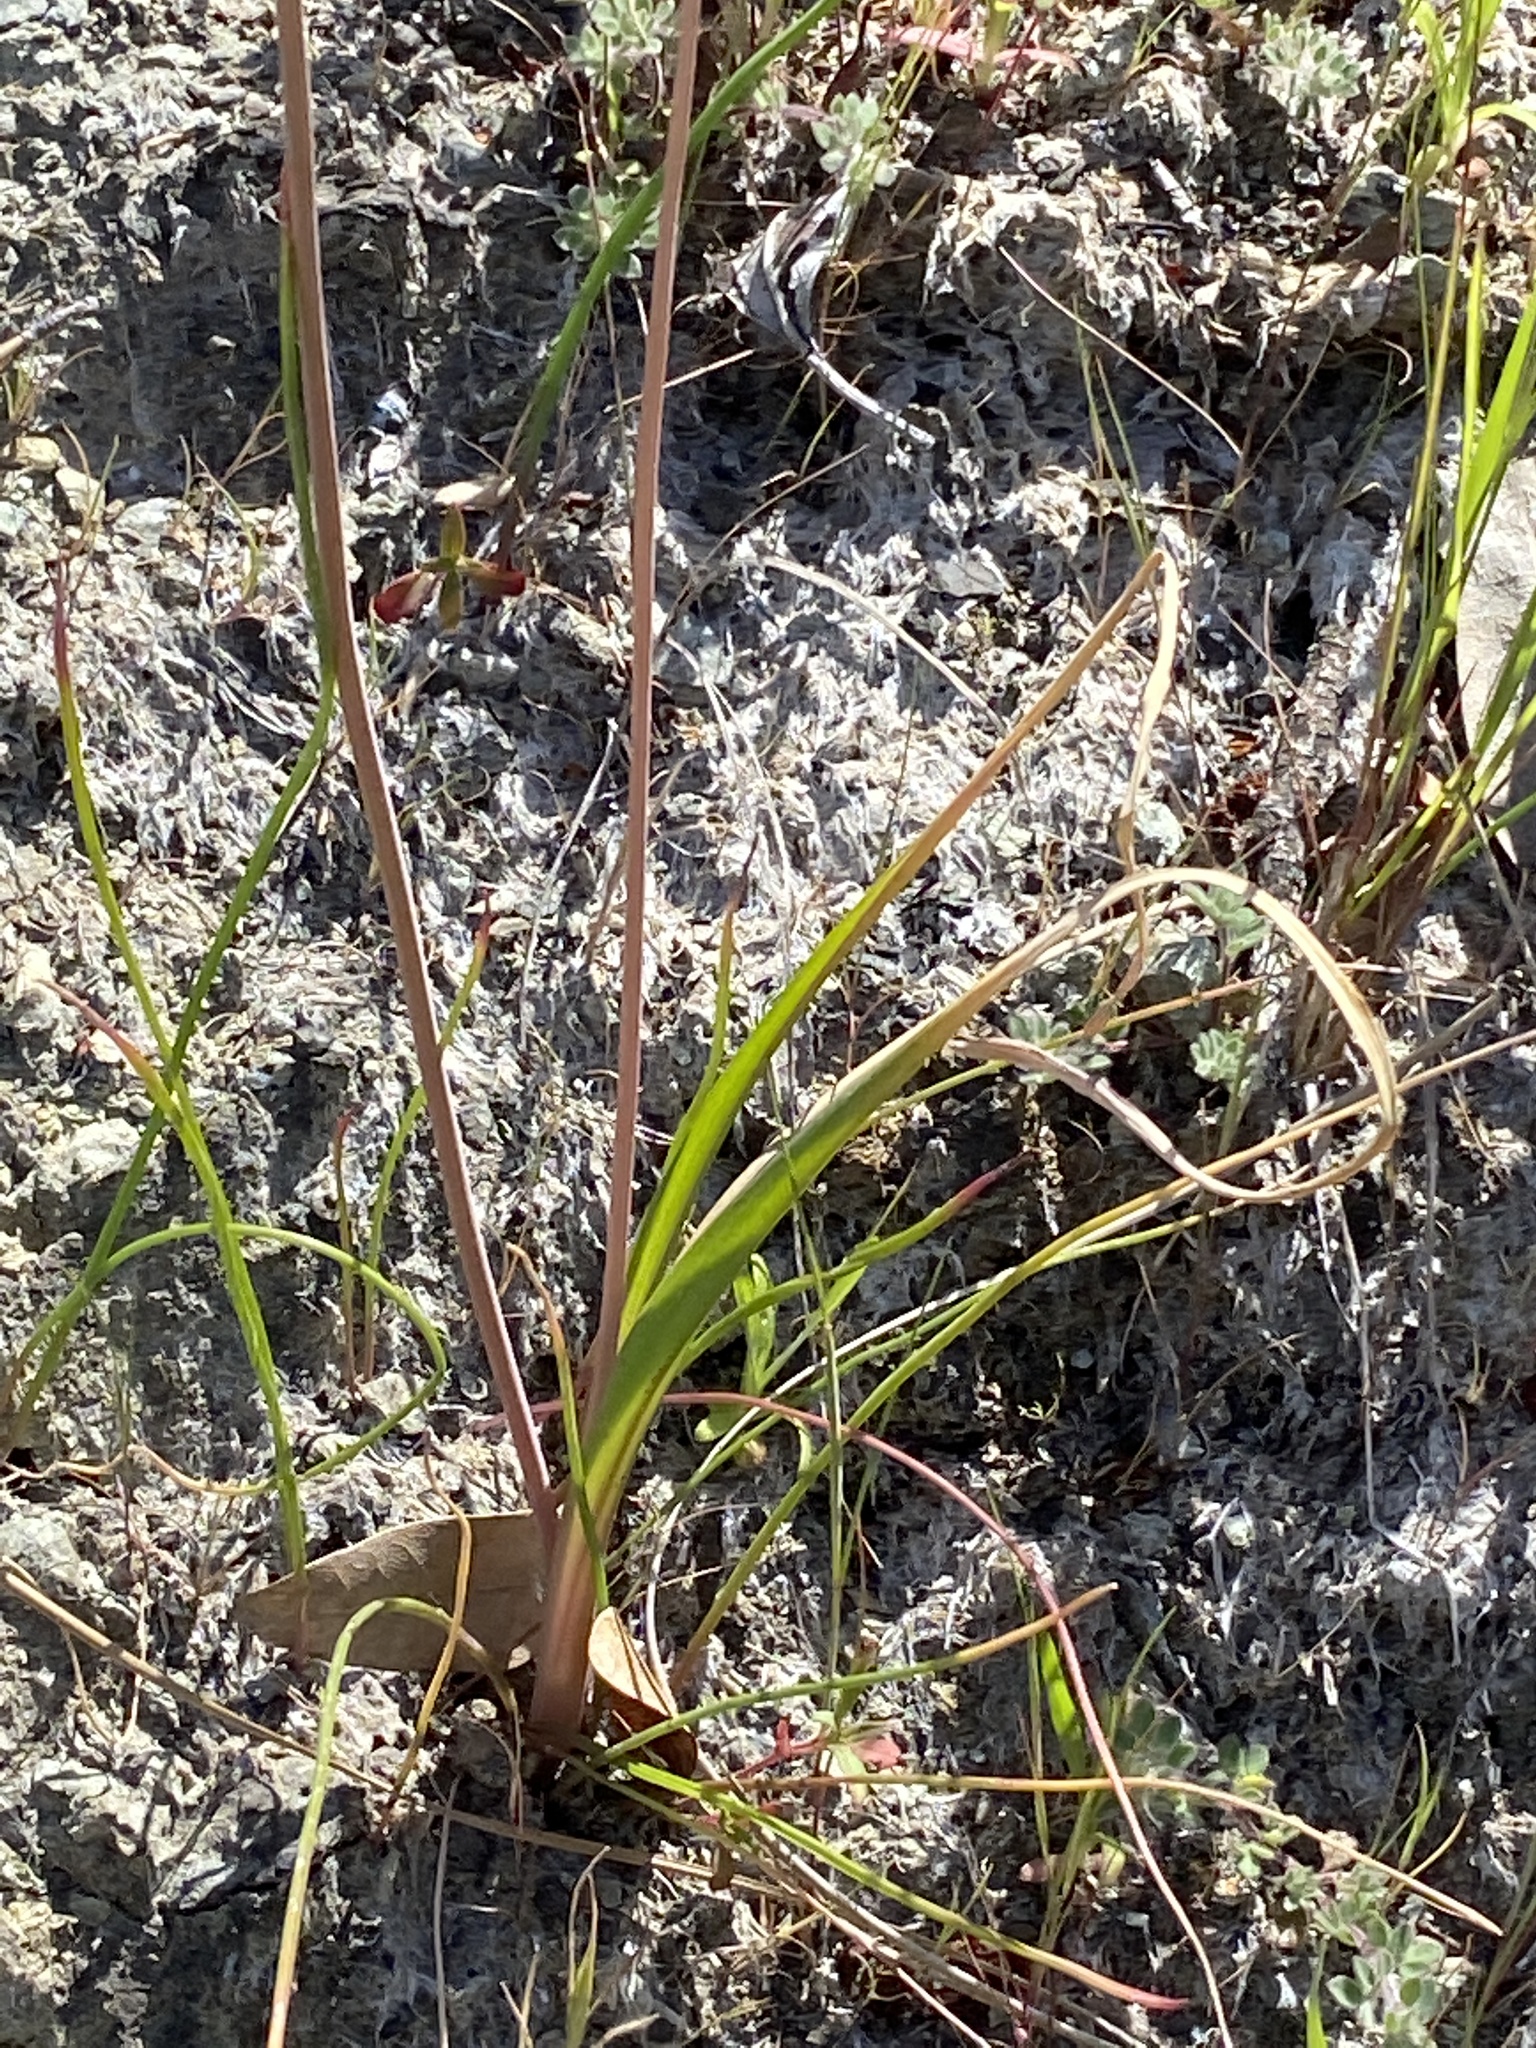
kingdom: Plantae
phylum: Tracheophyta
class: Liliopsida
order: Asparagales
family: Asparagaceae
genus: Dipterostemon
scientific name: Dipterostemon capitatus
